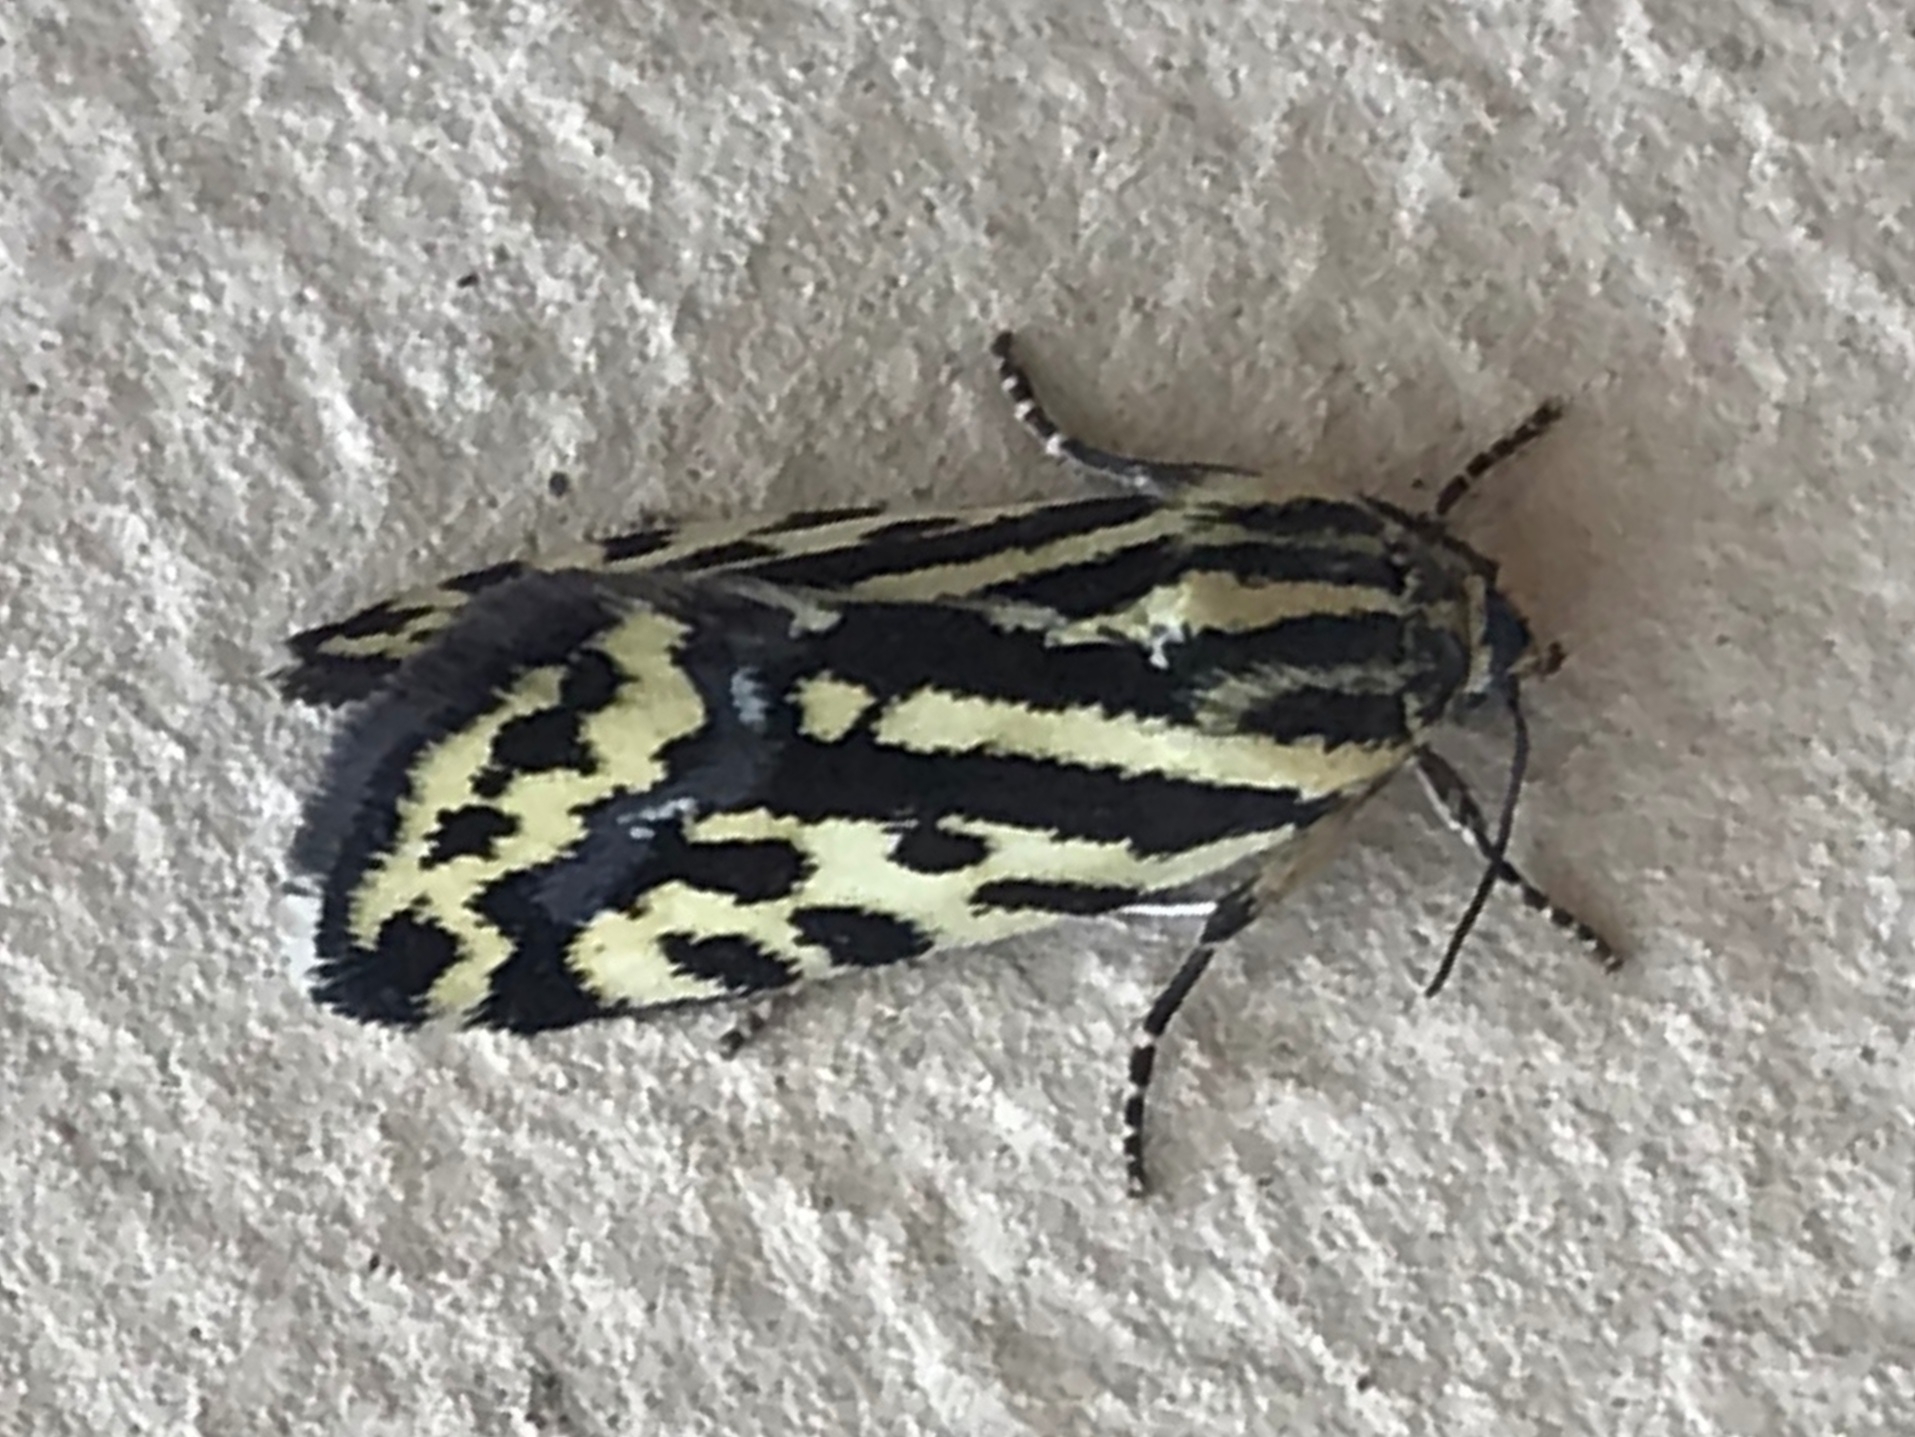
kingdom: Animalia
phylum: Arthropoda
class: Insecta
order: Lepidoptera
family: Noctuidae
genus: Acontia
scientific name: Acontia trabealis
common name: Spotted sulphur
